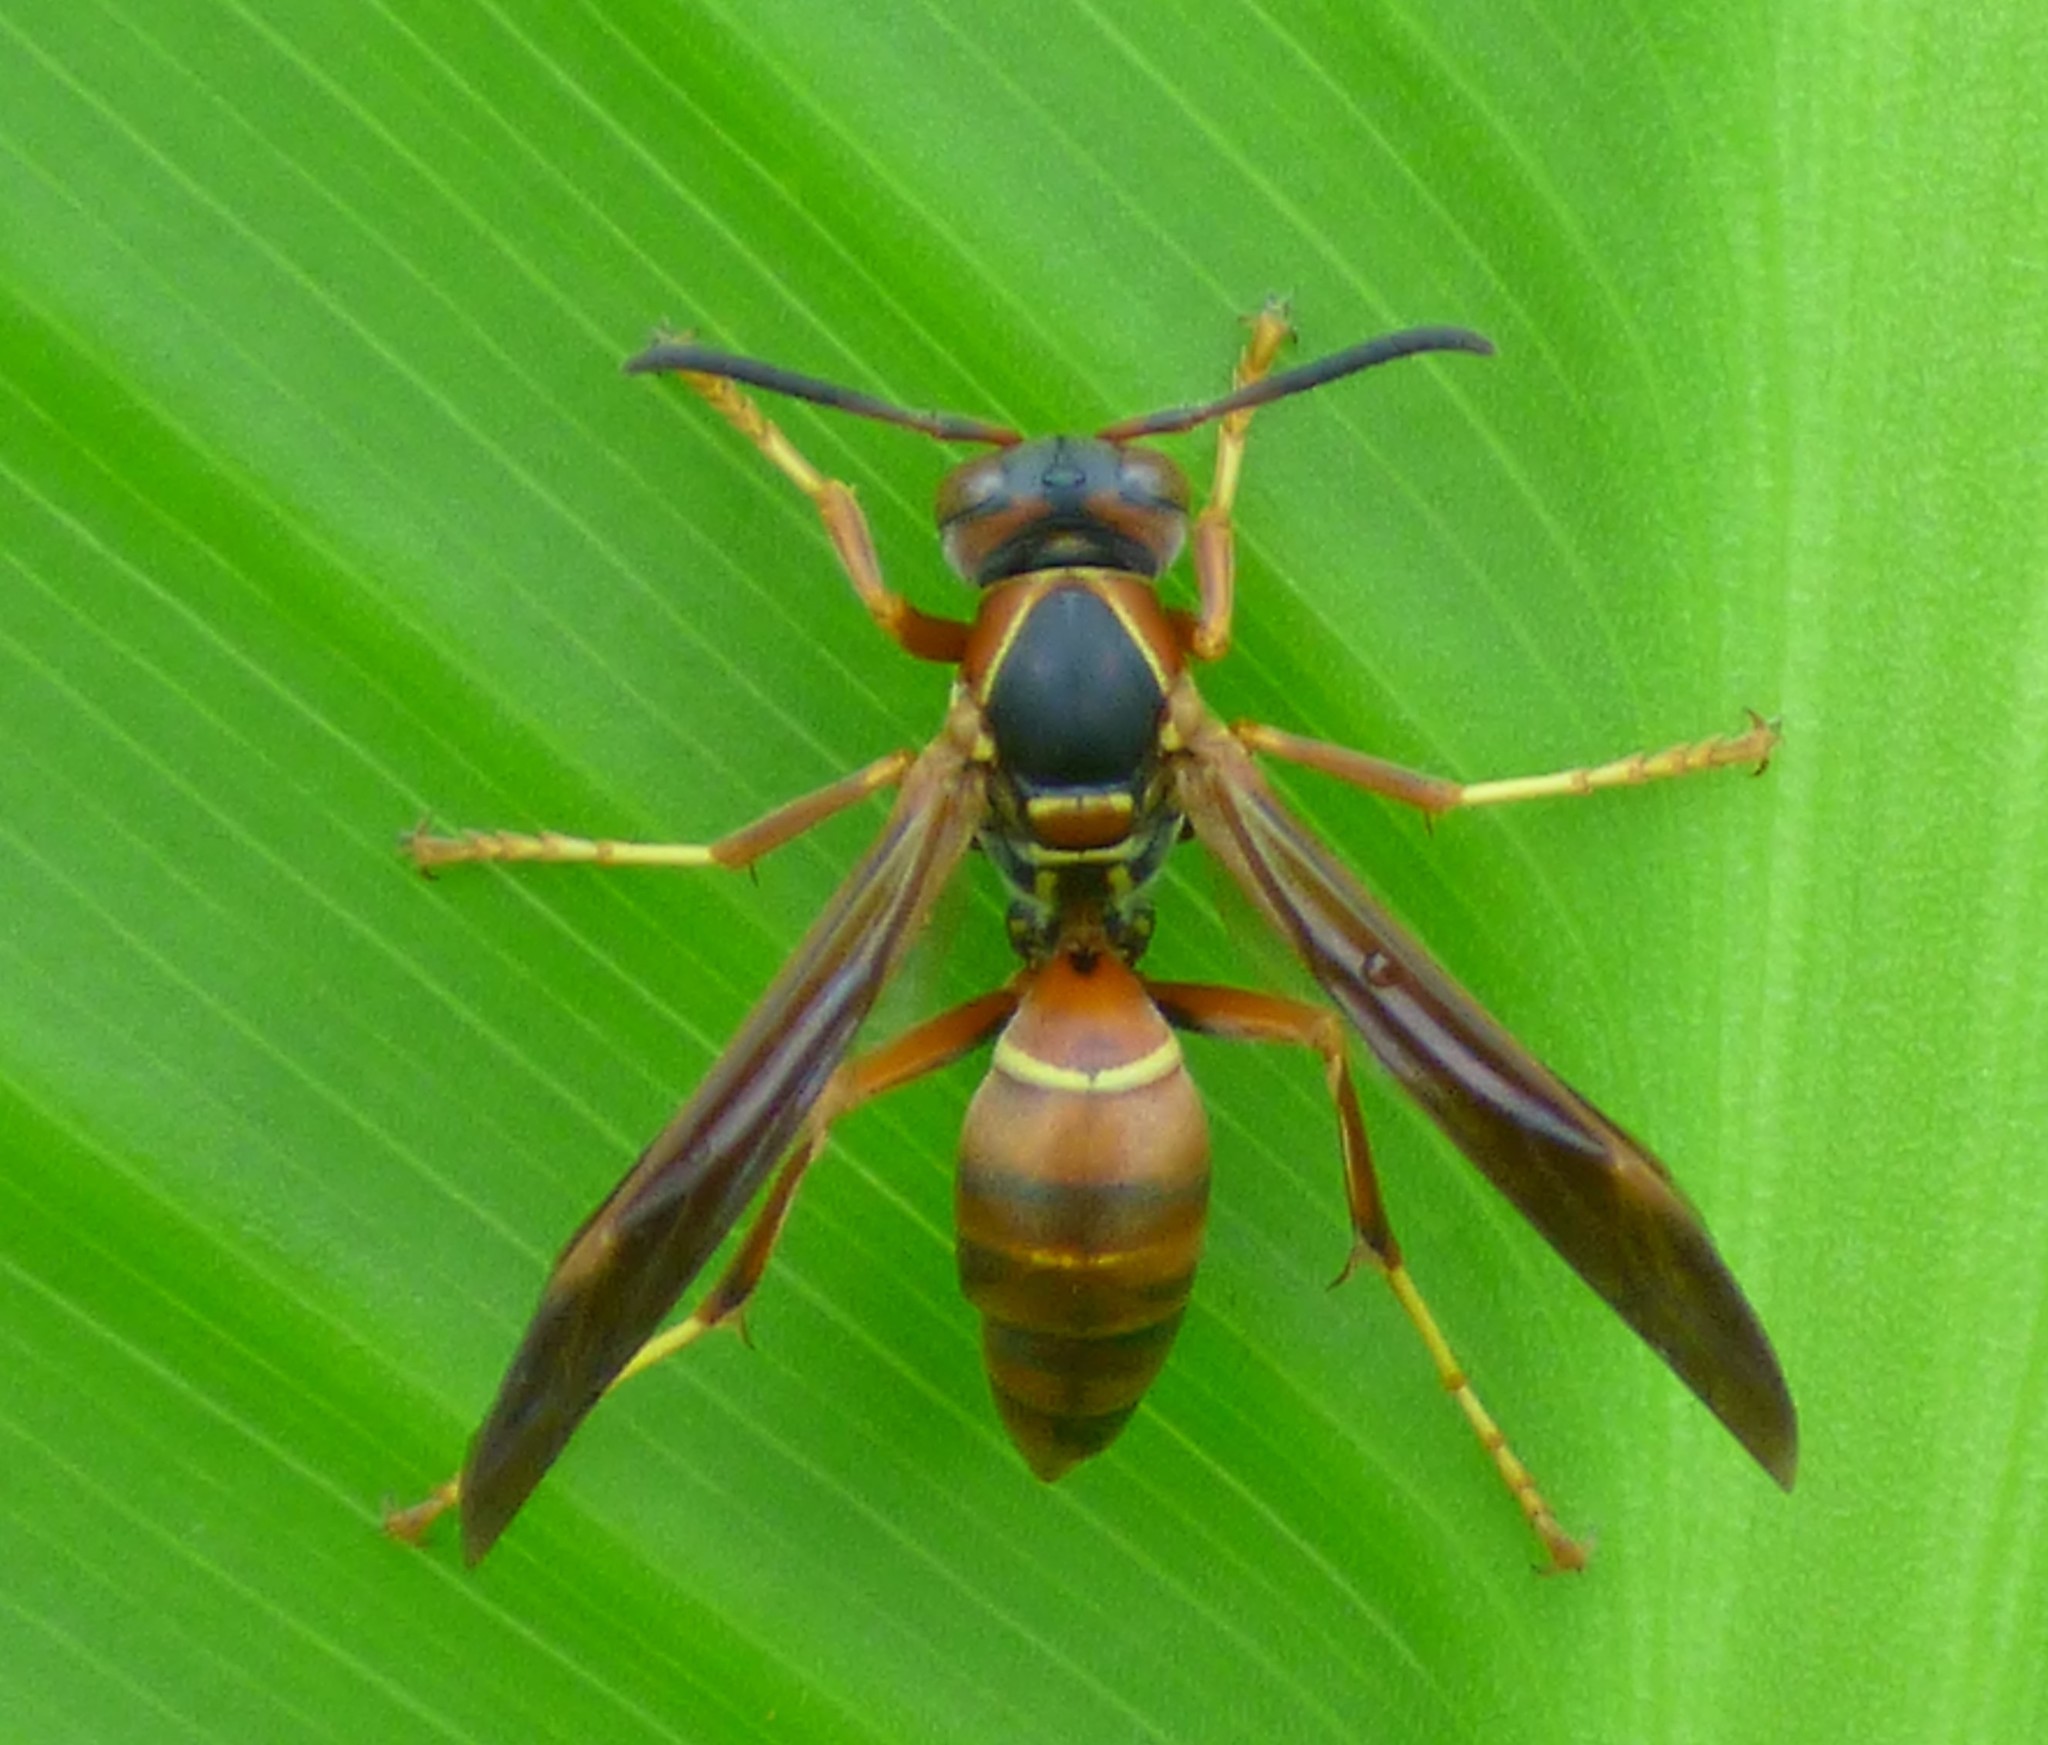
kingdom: Animalia
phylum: Arthropoda
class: Insecta
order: Hymenoptera
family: Eumenidae
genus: Polistes
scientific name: Polistes fuscatus
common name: Dark paper wasp
